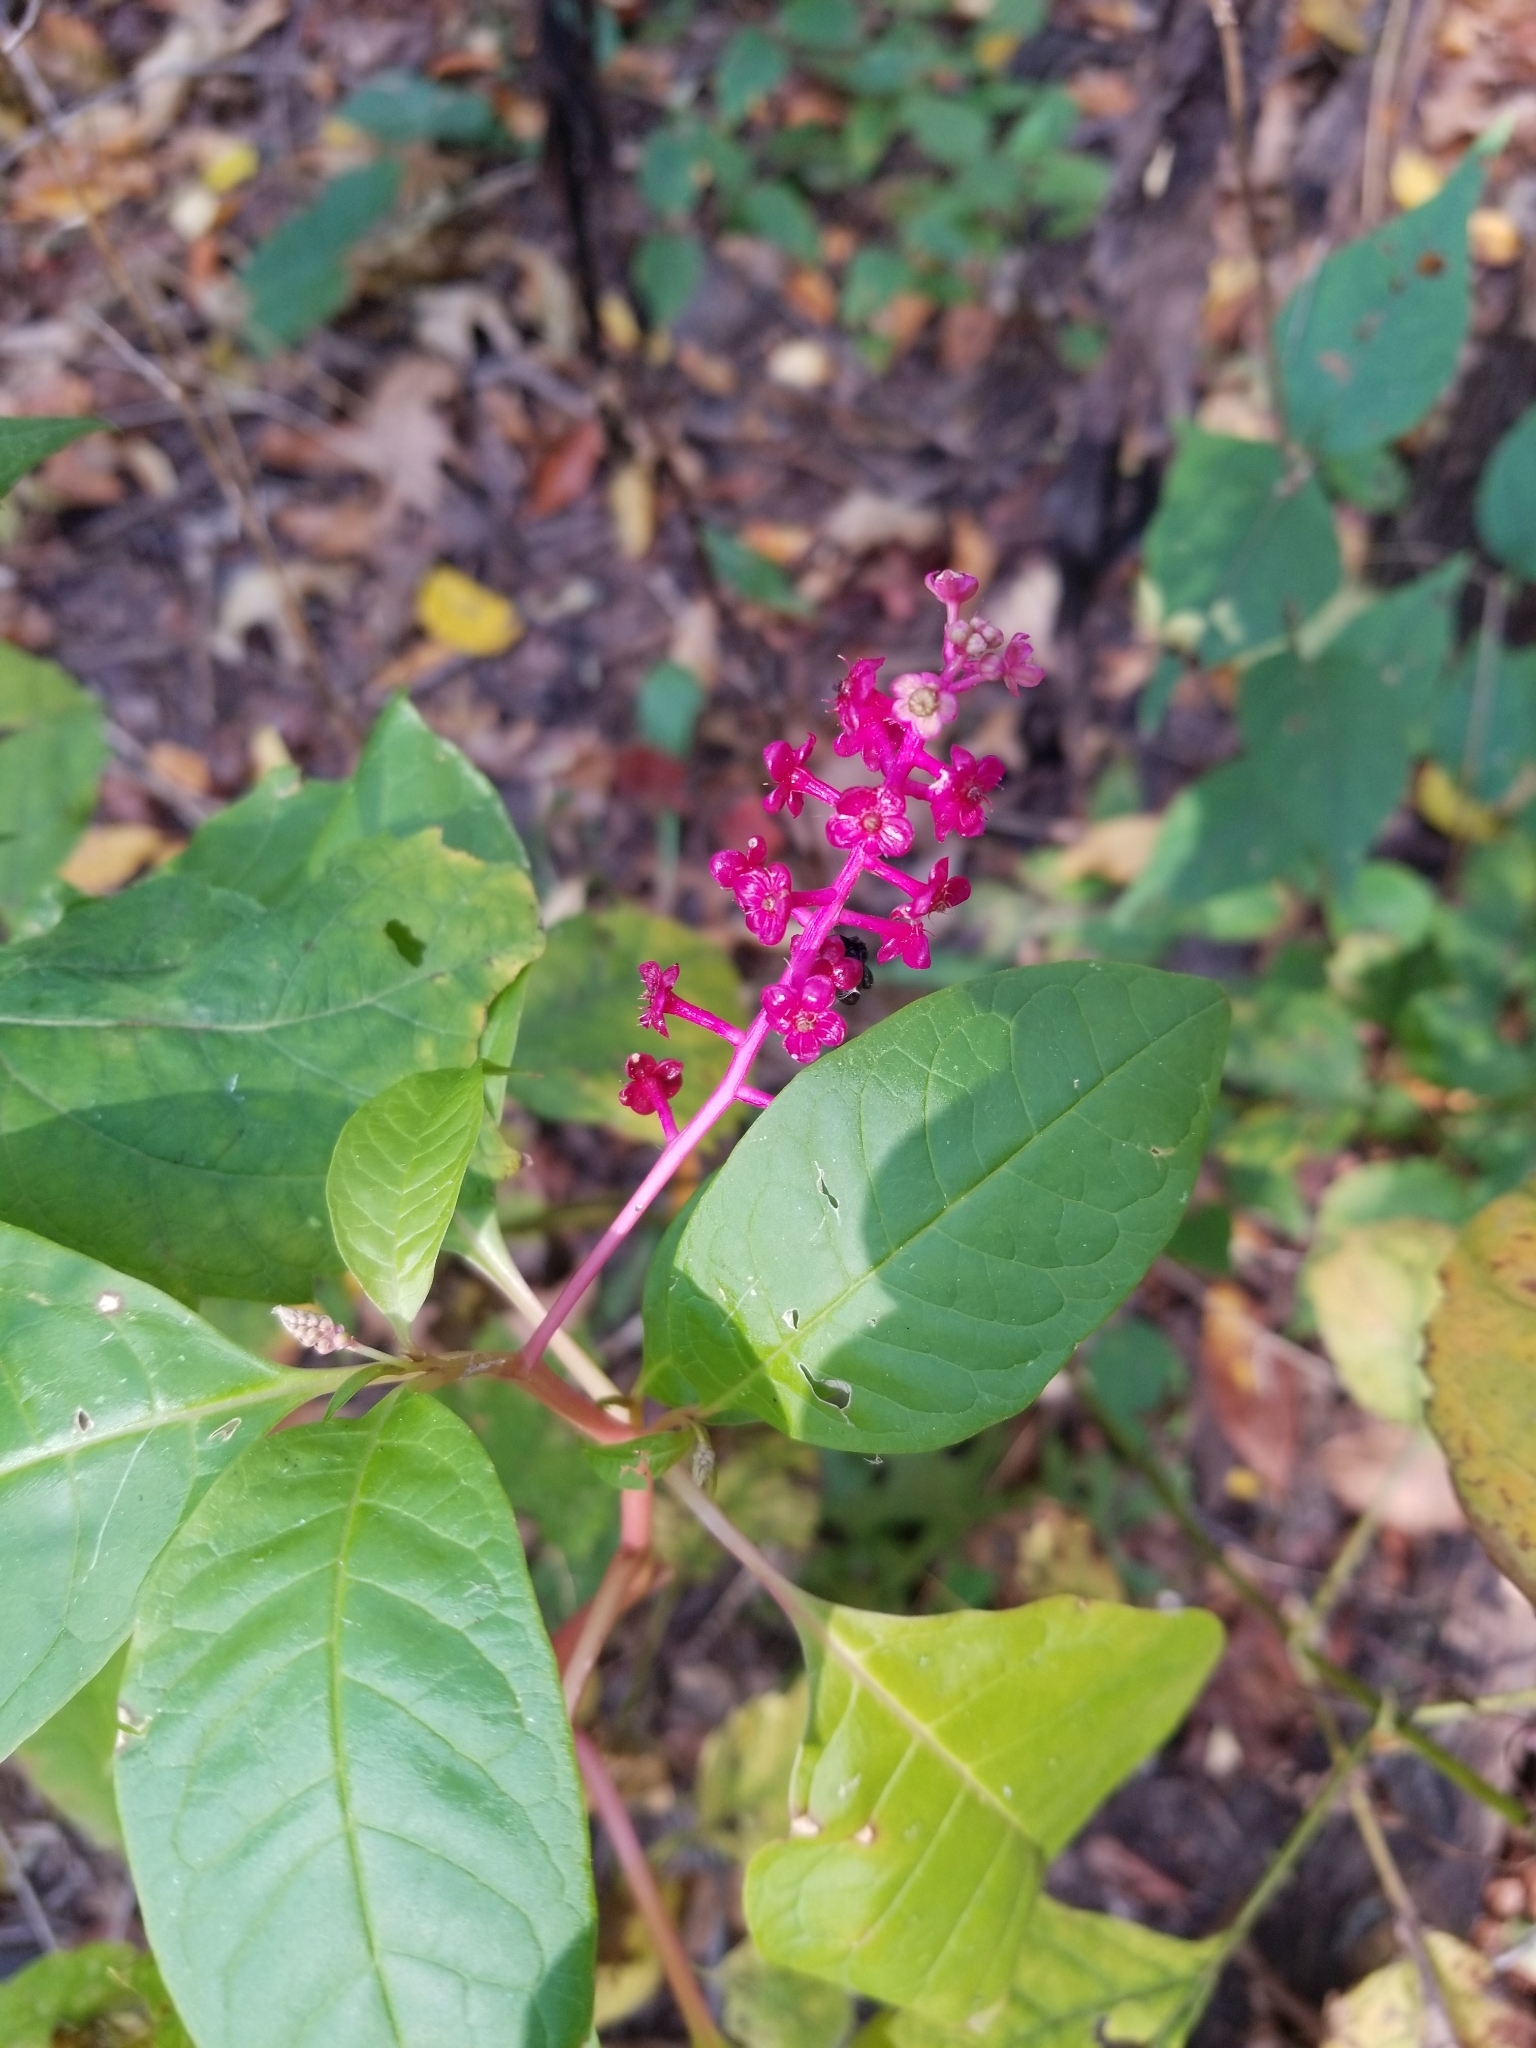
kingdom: Plantae
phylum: Tracheophyta
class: Magnoliopsida
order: Caryophyllales
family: Phytolaccaceae
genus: Phytolacca
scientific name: Phytolacca americana
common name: American pokeweed
